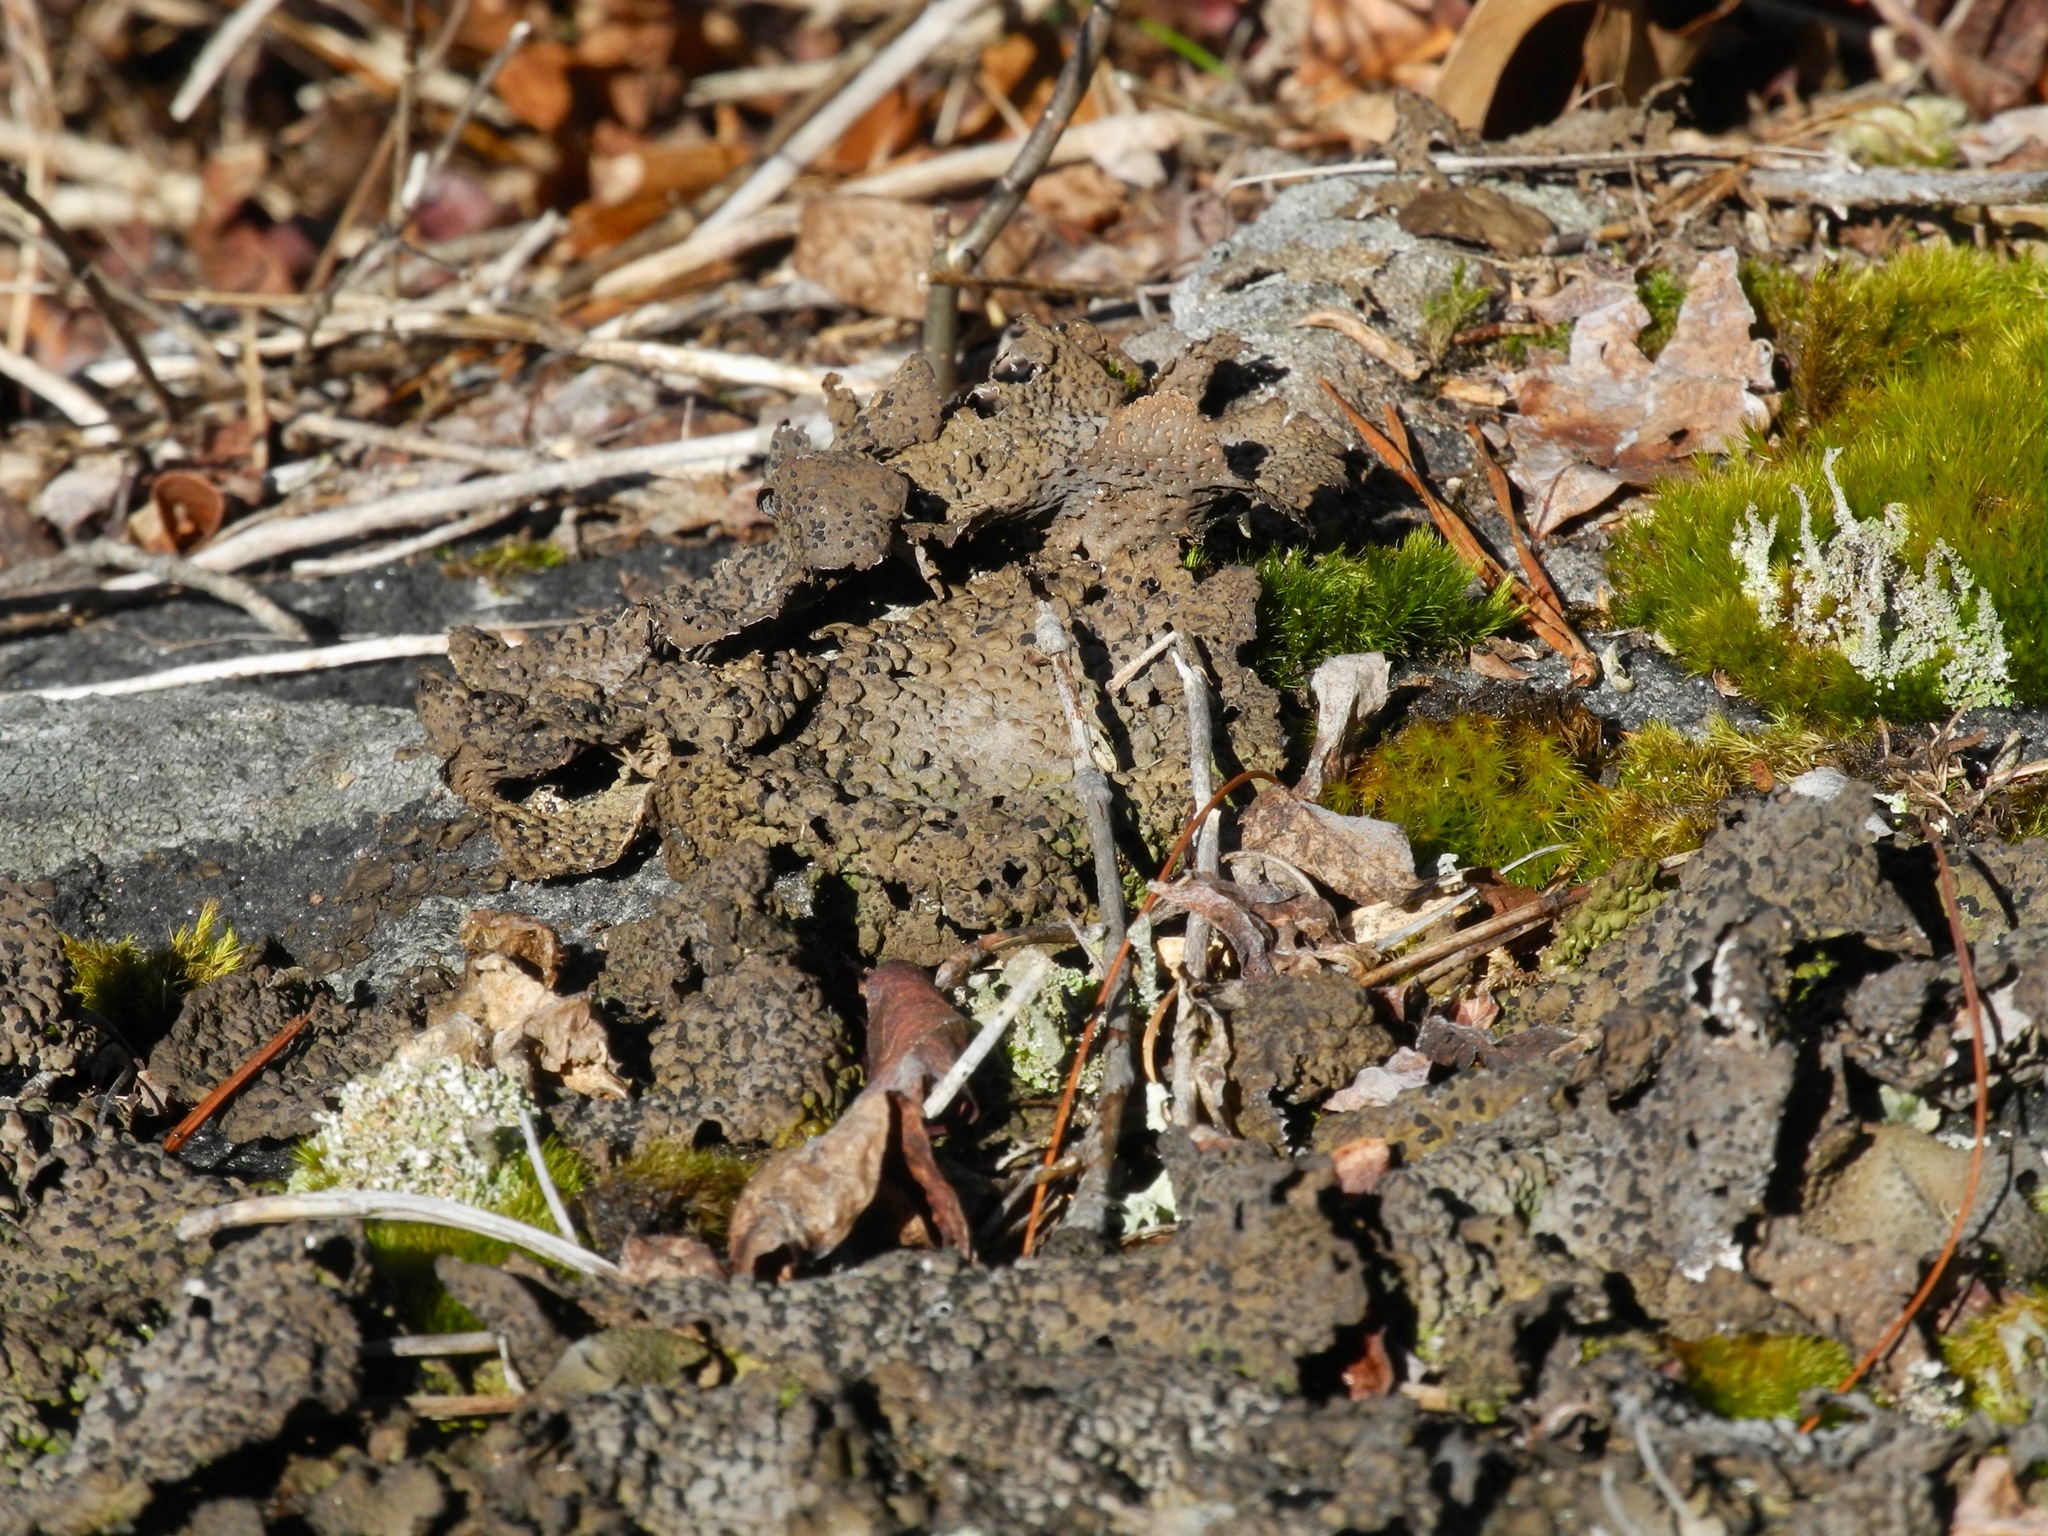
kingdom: Fungi
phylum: Ascomycota
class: Lecanoromycetes
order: Umbilicariales
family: Umbilicariaceae
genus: Lasallia
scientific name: Lasallia papulosa
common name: Common toadskin lichen
